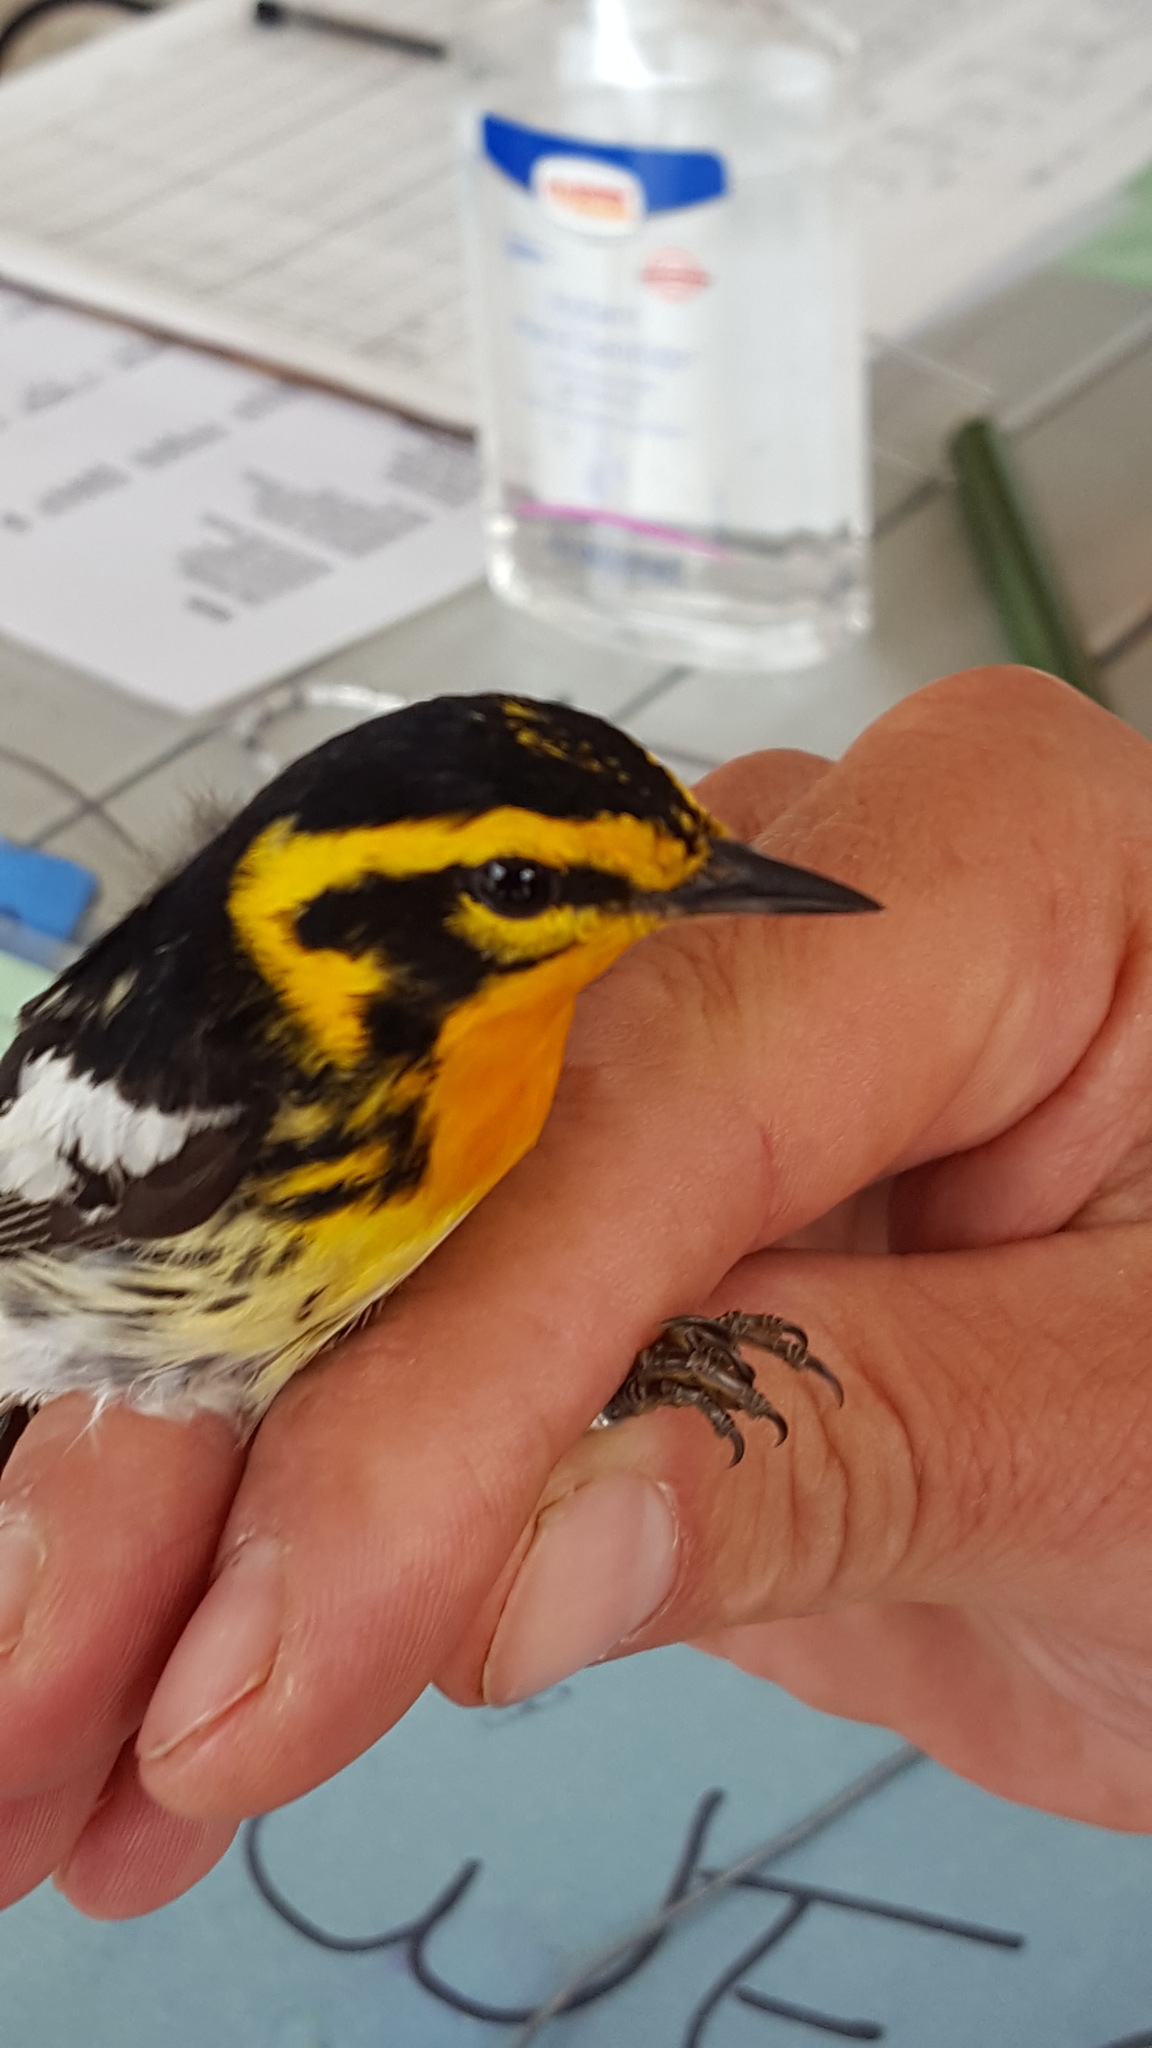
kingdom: Animalia
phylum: Chordata
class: Aves
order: Passeriformes
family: Parulidae
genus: Setophaga
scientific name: Setophaga fusca
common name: Blackburnian warbler
